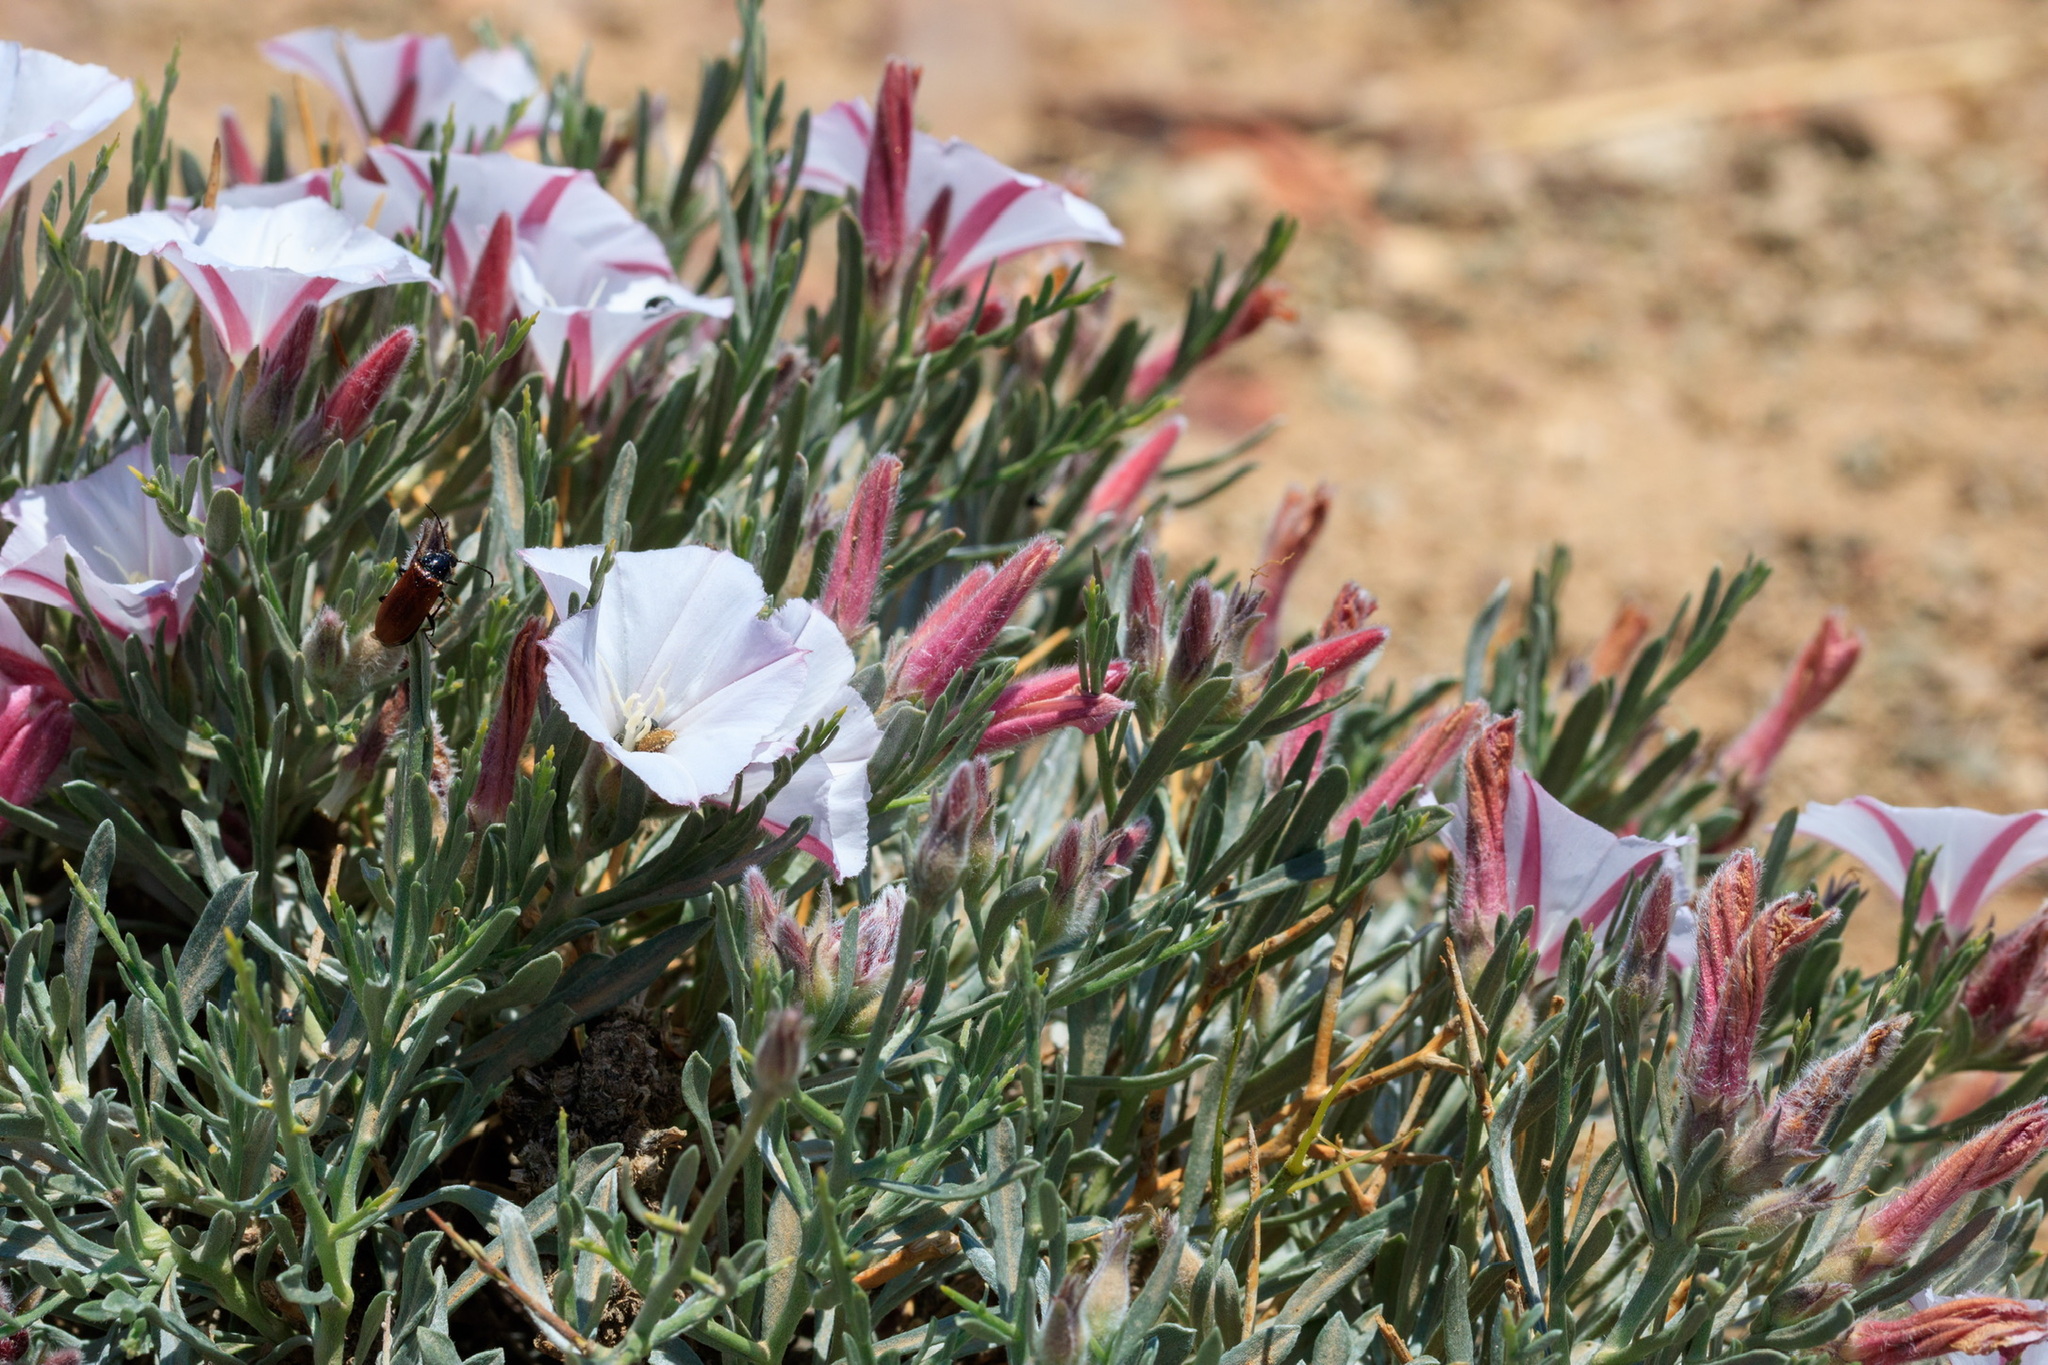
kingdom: Plantae
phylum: Tracheophyta
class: Magnoliopsida
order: Solanales
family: Convolvulaceae
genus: Convolvulus
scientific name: Convolvulus tragacanthoides
